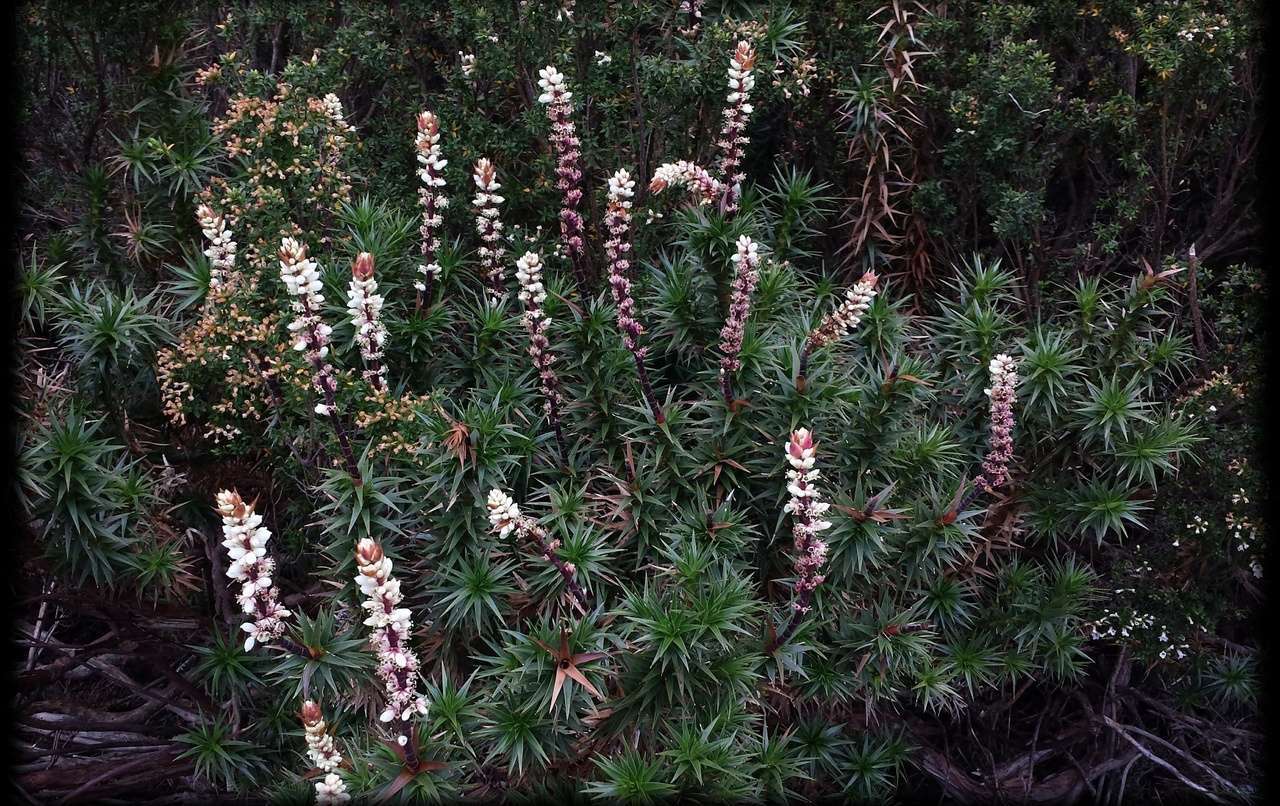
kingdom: Plantae
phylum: Tracheophyta
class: Magnoliopsida
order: Ericales
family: Ericaceae
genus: Dracophyllum
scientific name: Dracophyllum continentis
